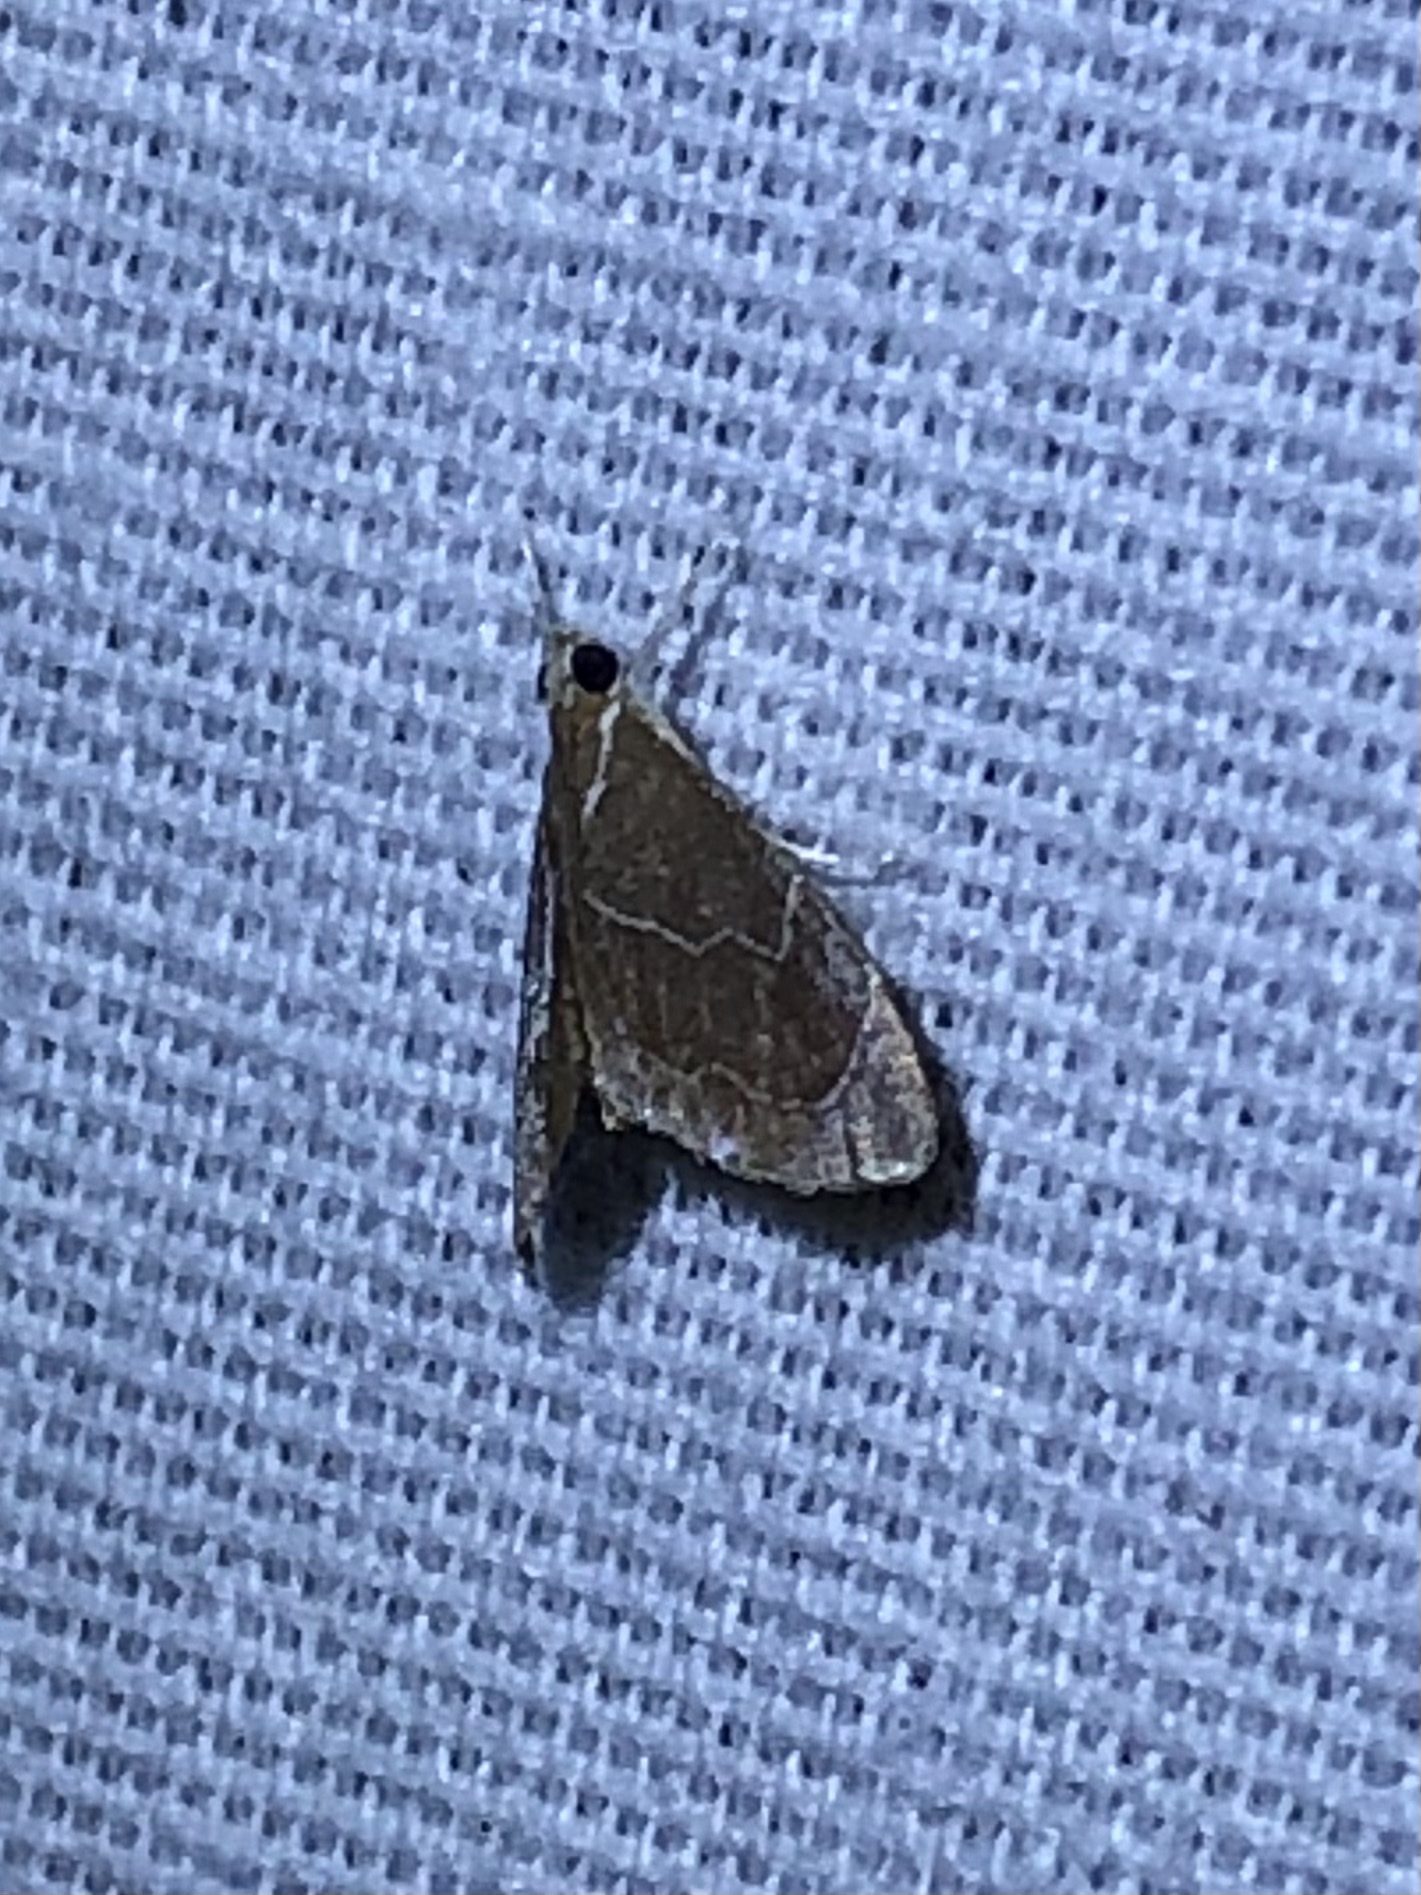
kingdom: Animalia
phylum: Arthropoda
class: Insecta
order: Lepidoptera
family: Crambidae
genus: Glaphyria
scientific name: Glaphyria peremptalis
